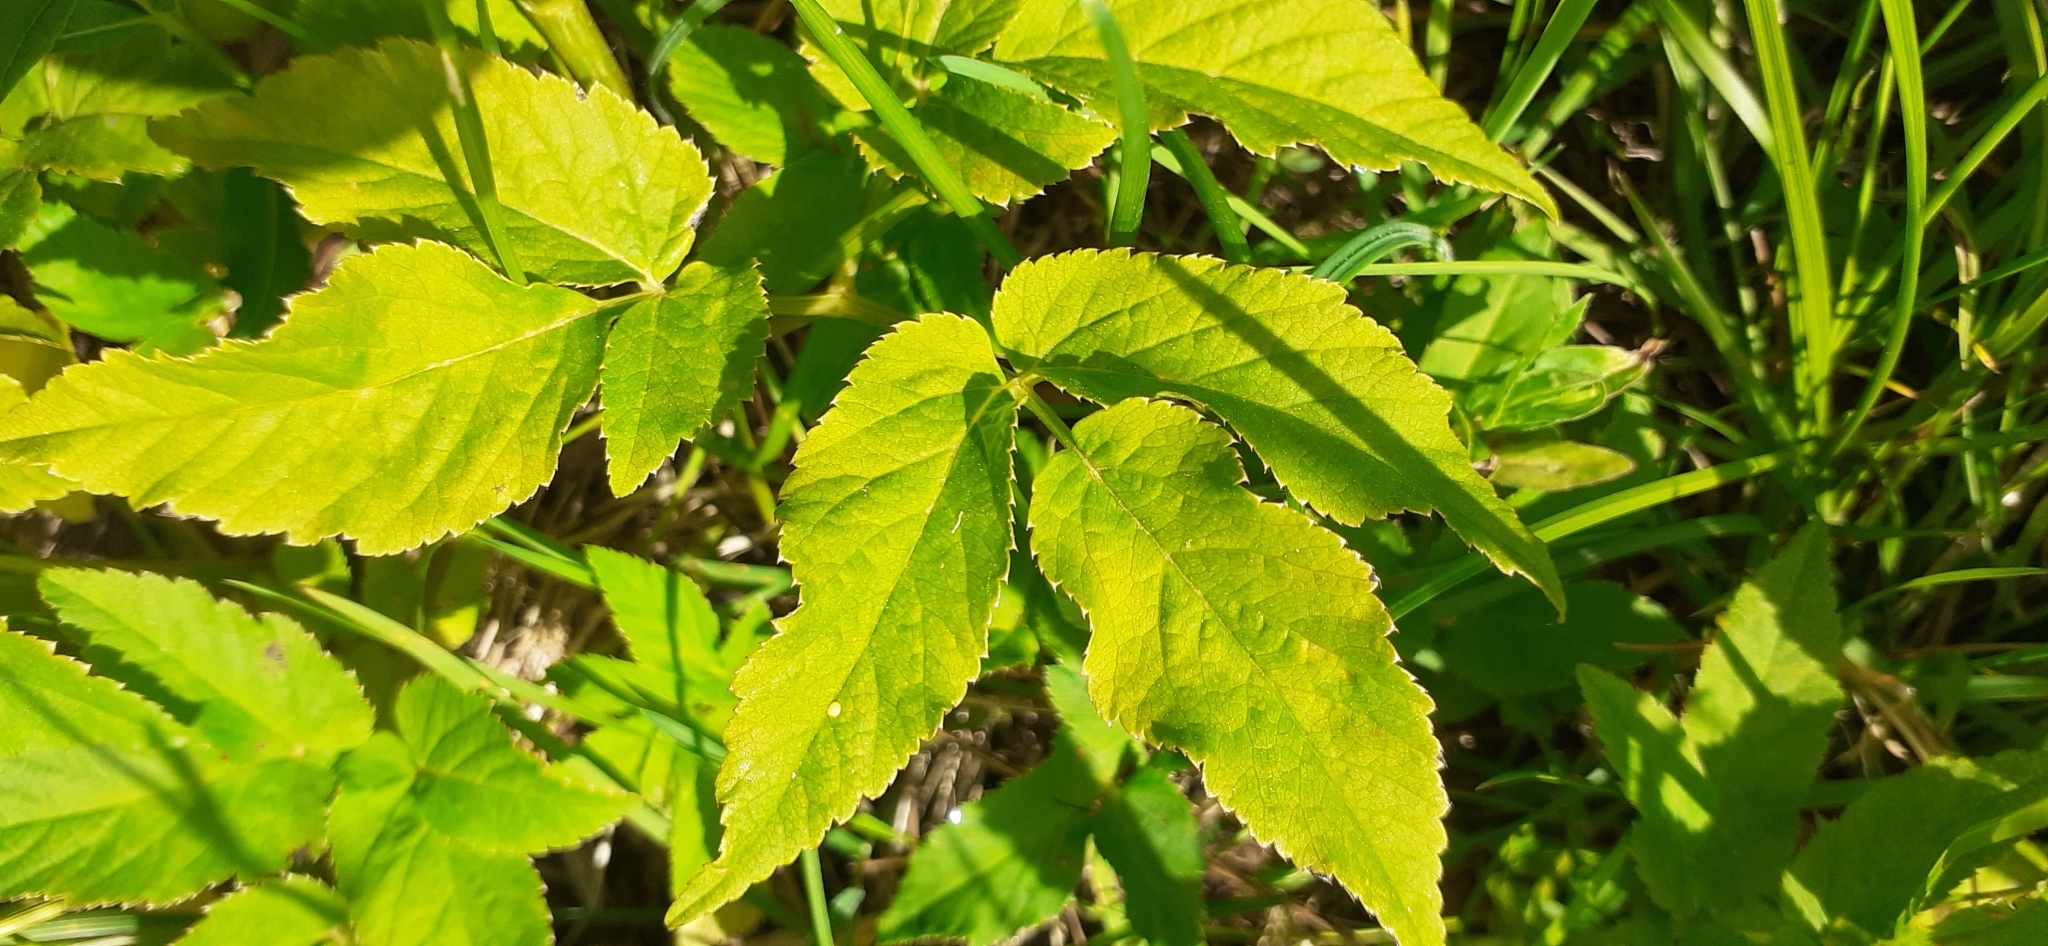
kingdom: Plantae
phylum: Tracheophyta
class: Magnoliopsida
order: Apiales
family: Apiaceae
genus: Aegopodium
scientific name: Aegopodium podagraria
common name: Ground-elder
